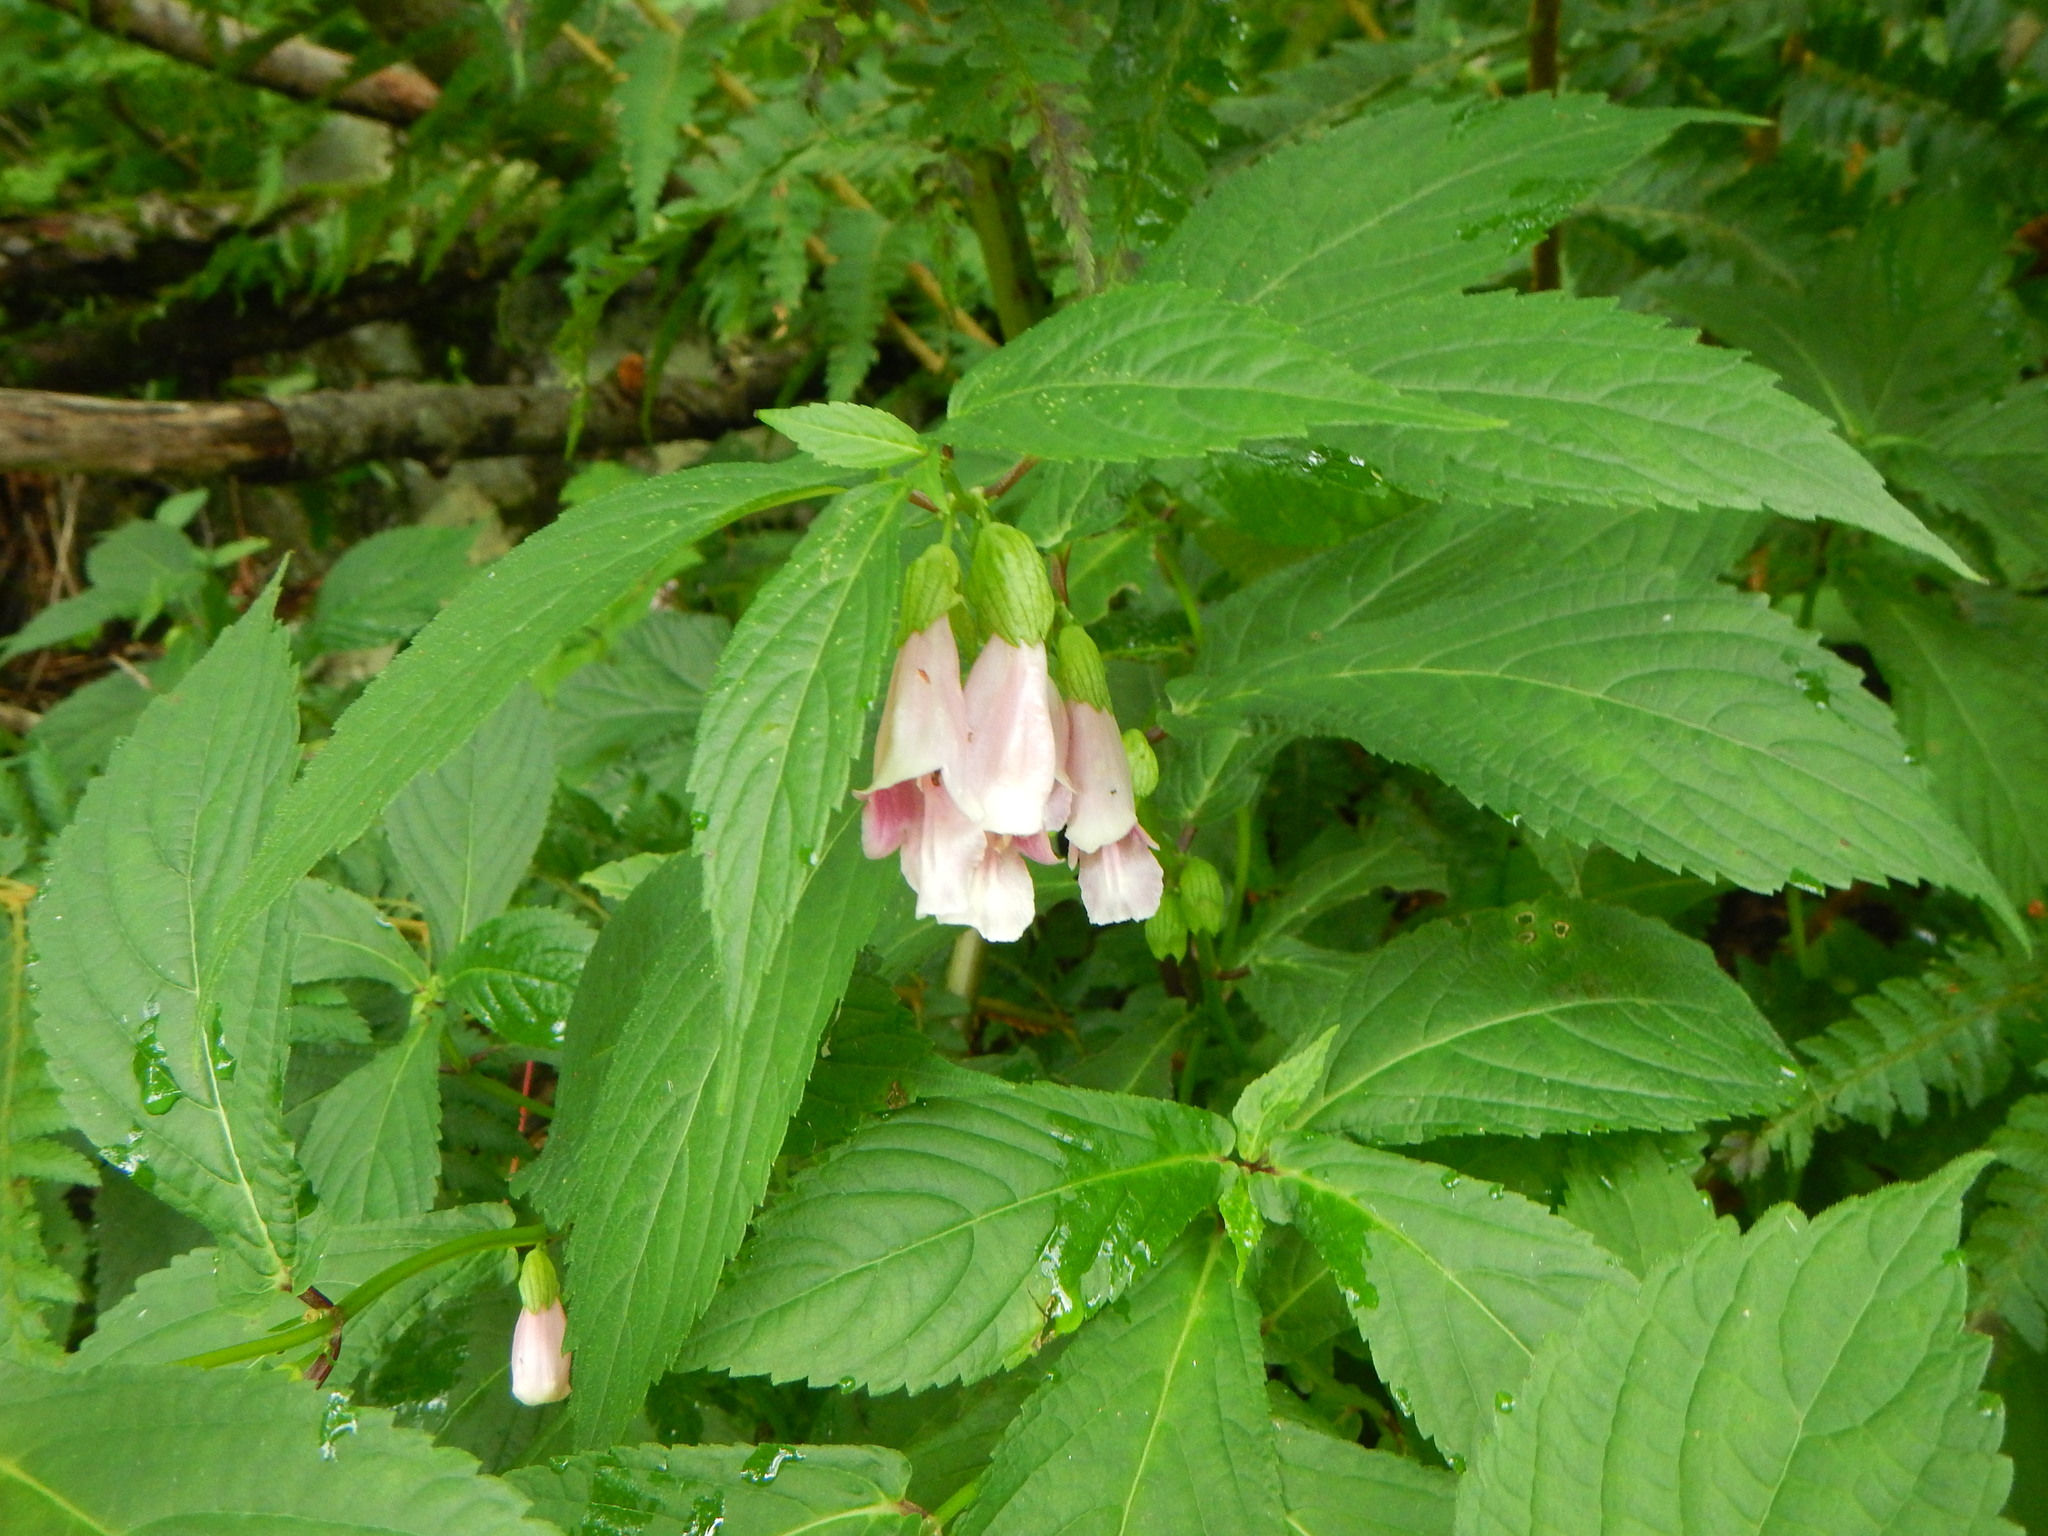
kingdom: Plantae
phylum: Tracheophyta
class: Magnoliopsida
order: Lamiales
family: Lamiaceae
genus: Chelonopsis
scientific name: Chelonopsis moschata
